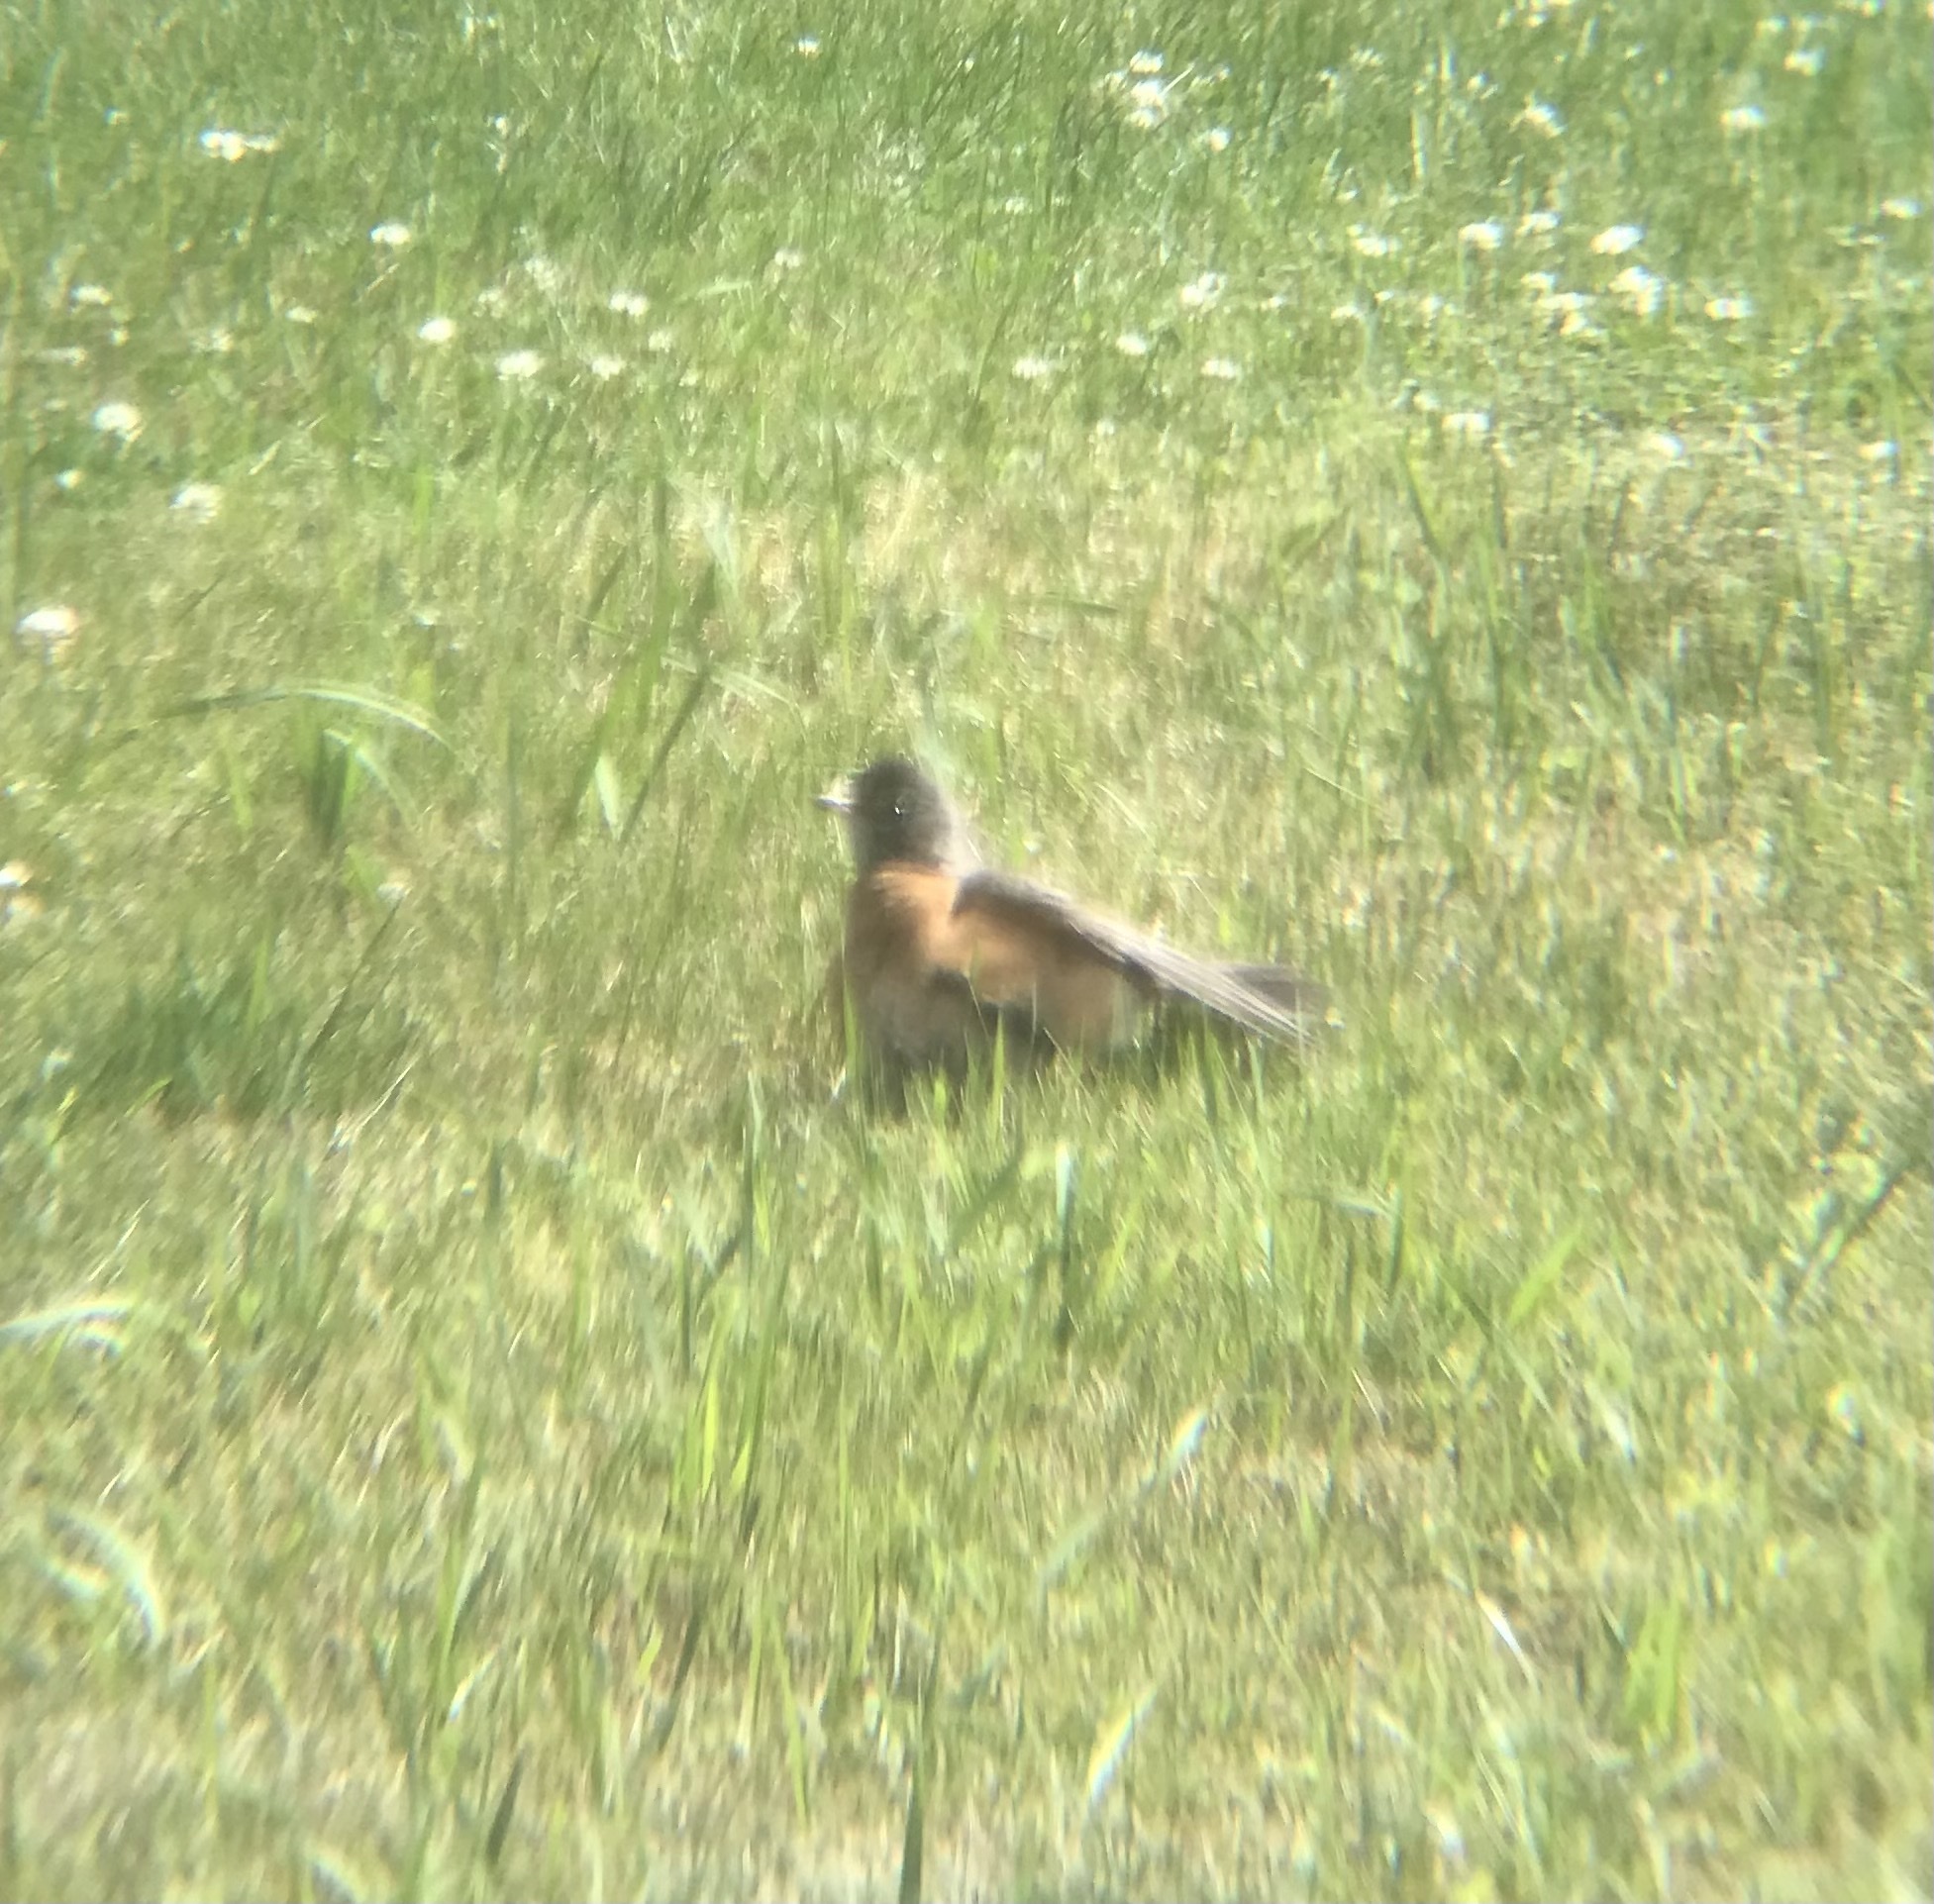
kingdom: Animalia
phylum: Chordata
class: Aves
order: Passeriformes
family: Turdidae
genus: Turdus
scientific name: Turdus migratorius
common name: American robin
